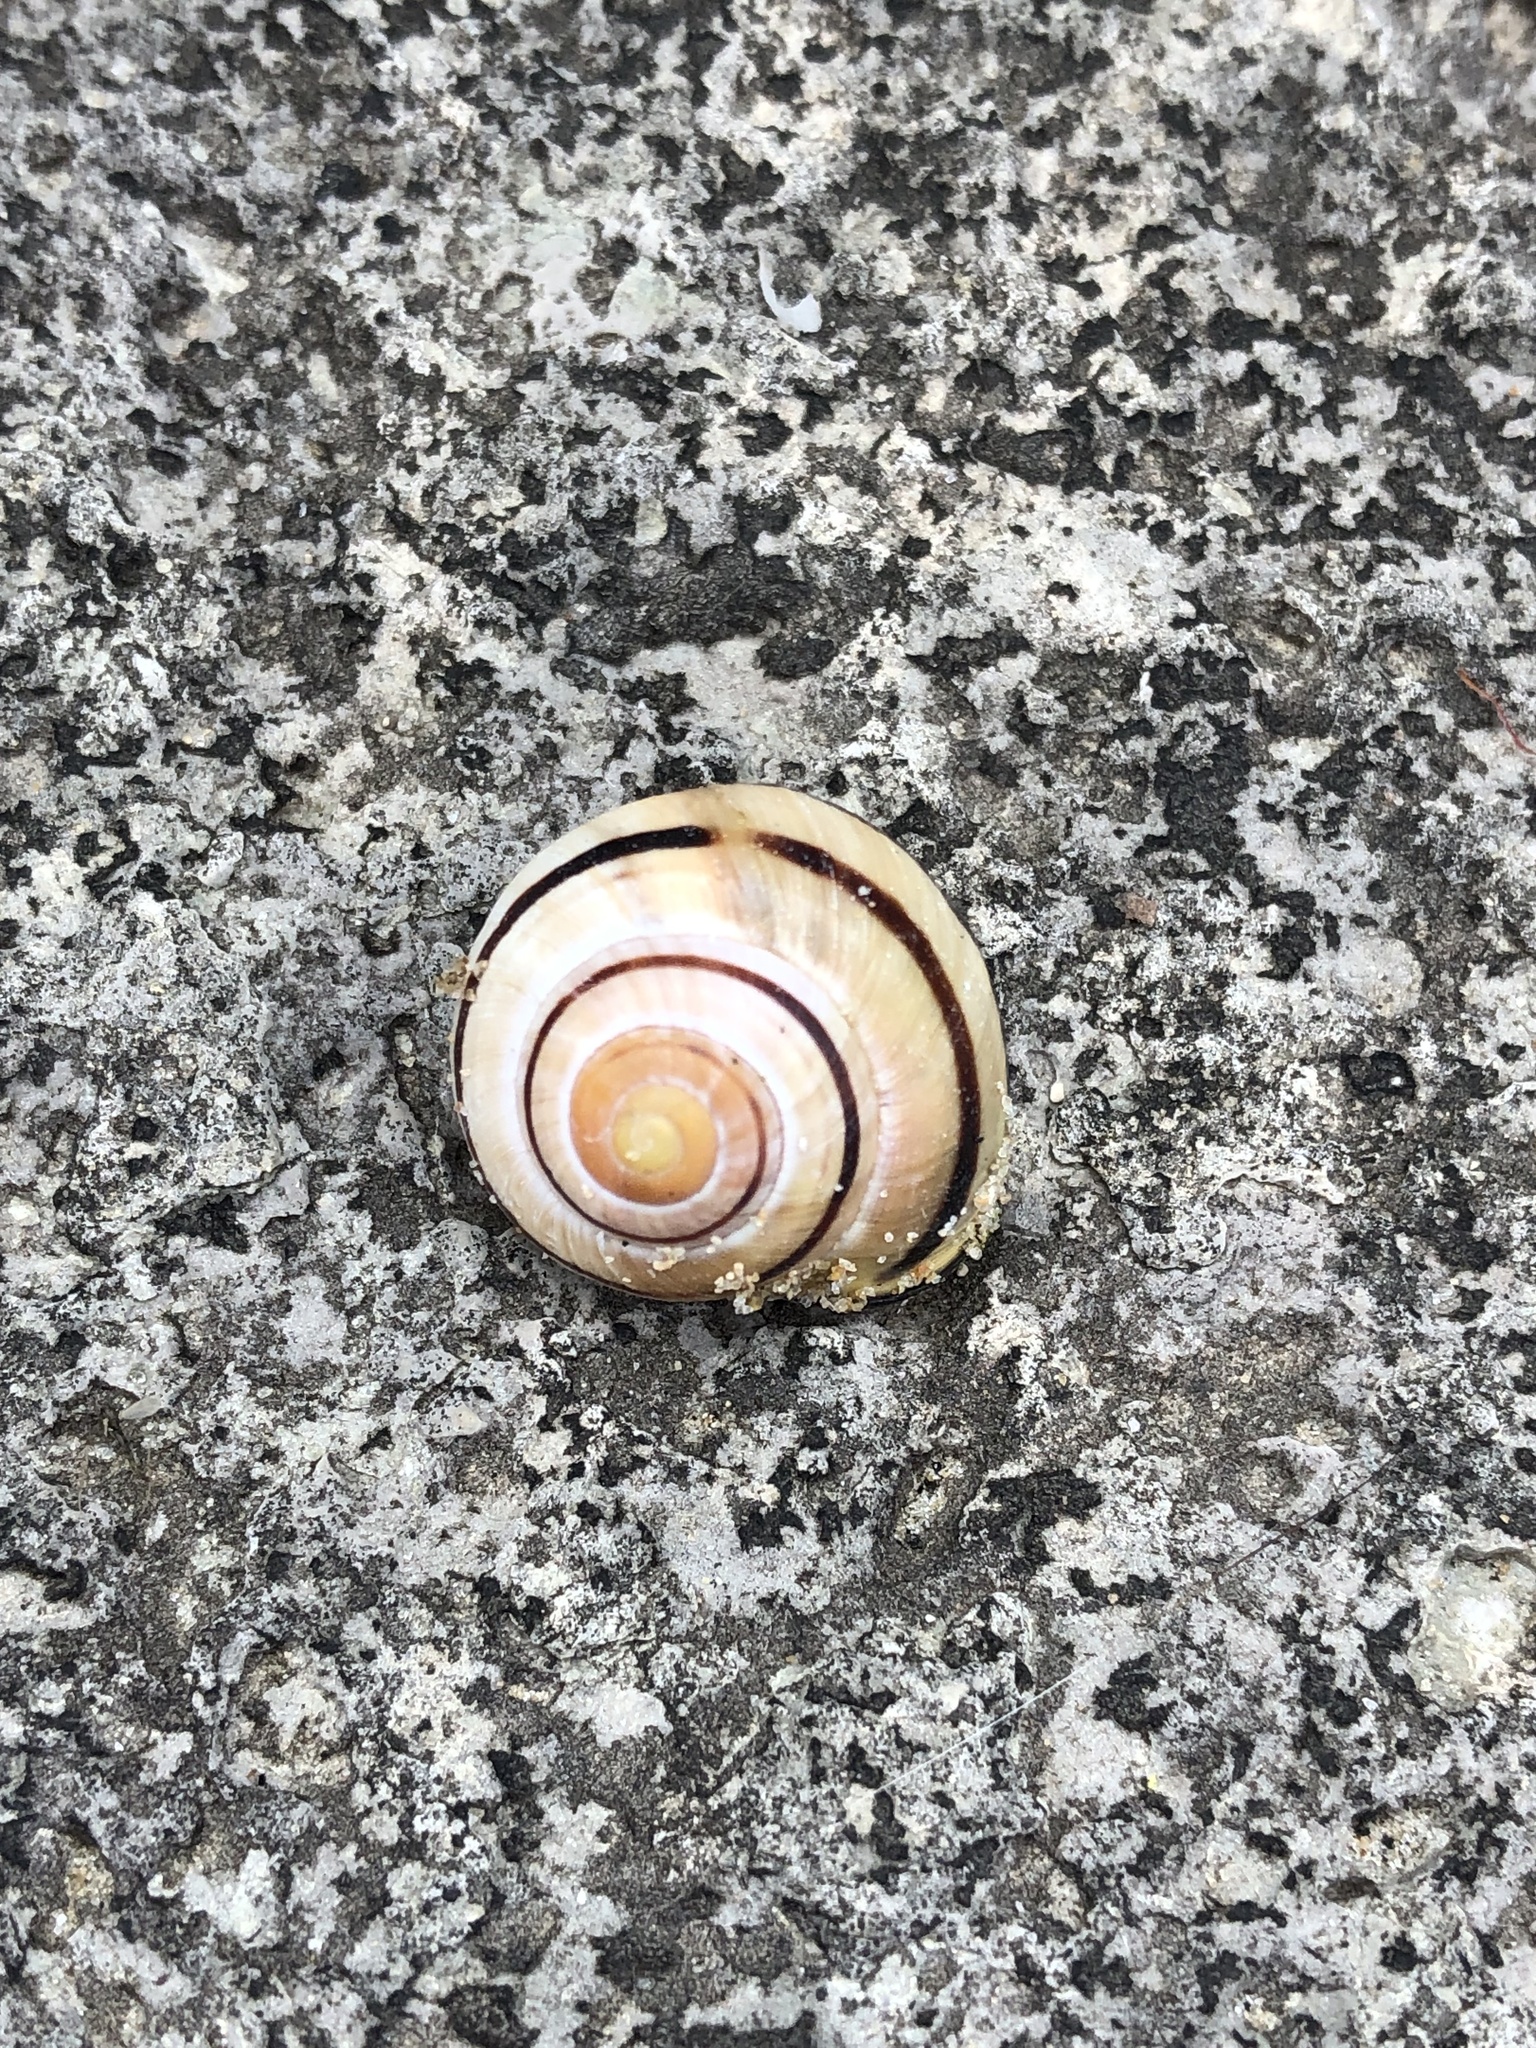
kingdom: Animalia
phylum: Mollusca
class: Gastropoda
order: Stylommatophora
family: Helicidae
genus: Cepaea
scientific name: Cepaea nemoralis
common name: Grovesnail
